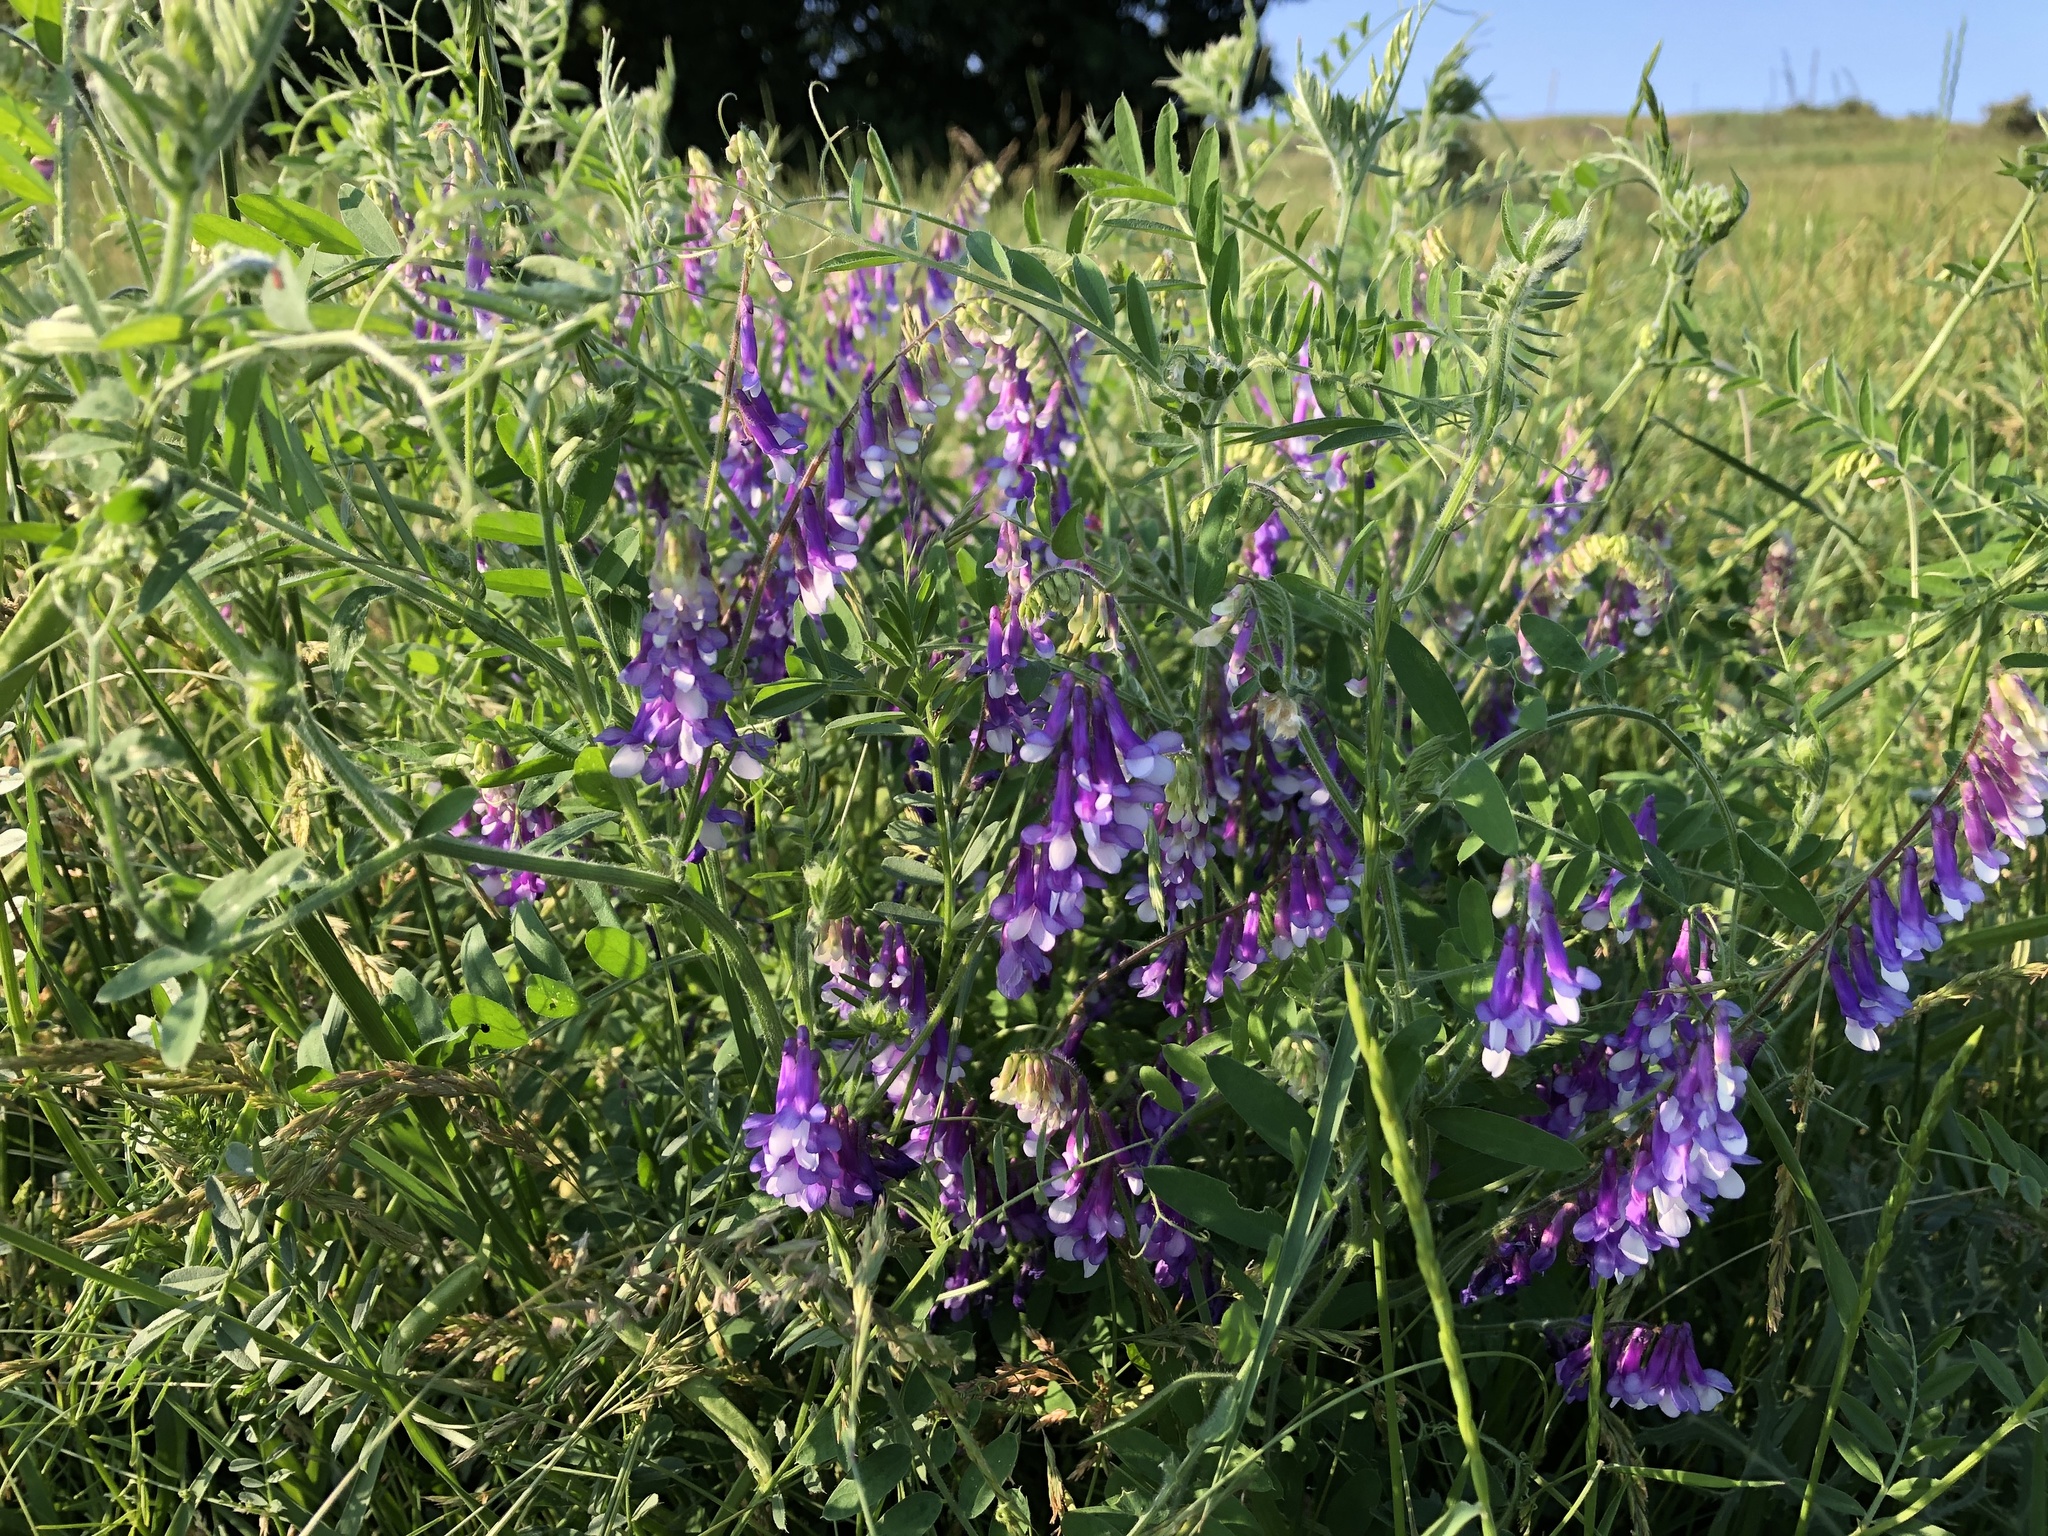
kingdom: Plantae
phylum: Tracheophyta
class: Magnoliopsida
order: Fabales
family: Fabaceae
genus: Vicia
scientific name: Vicia villosa
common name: Fodder vetch
